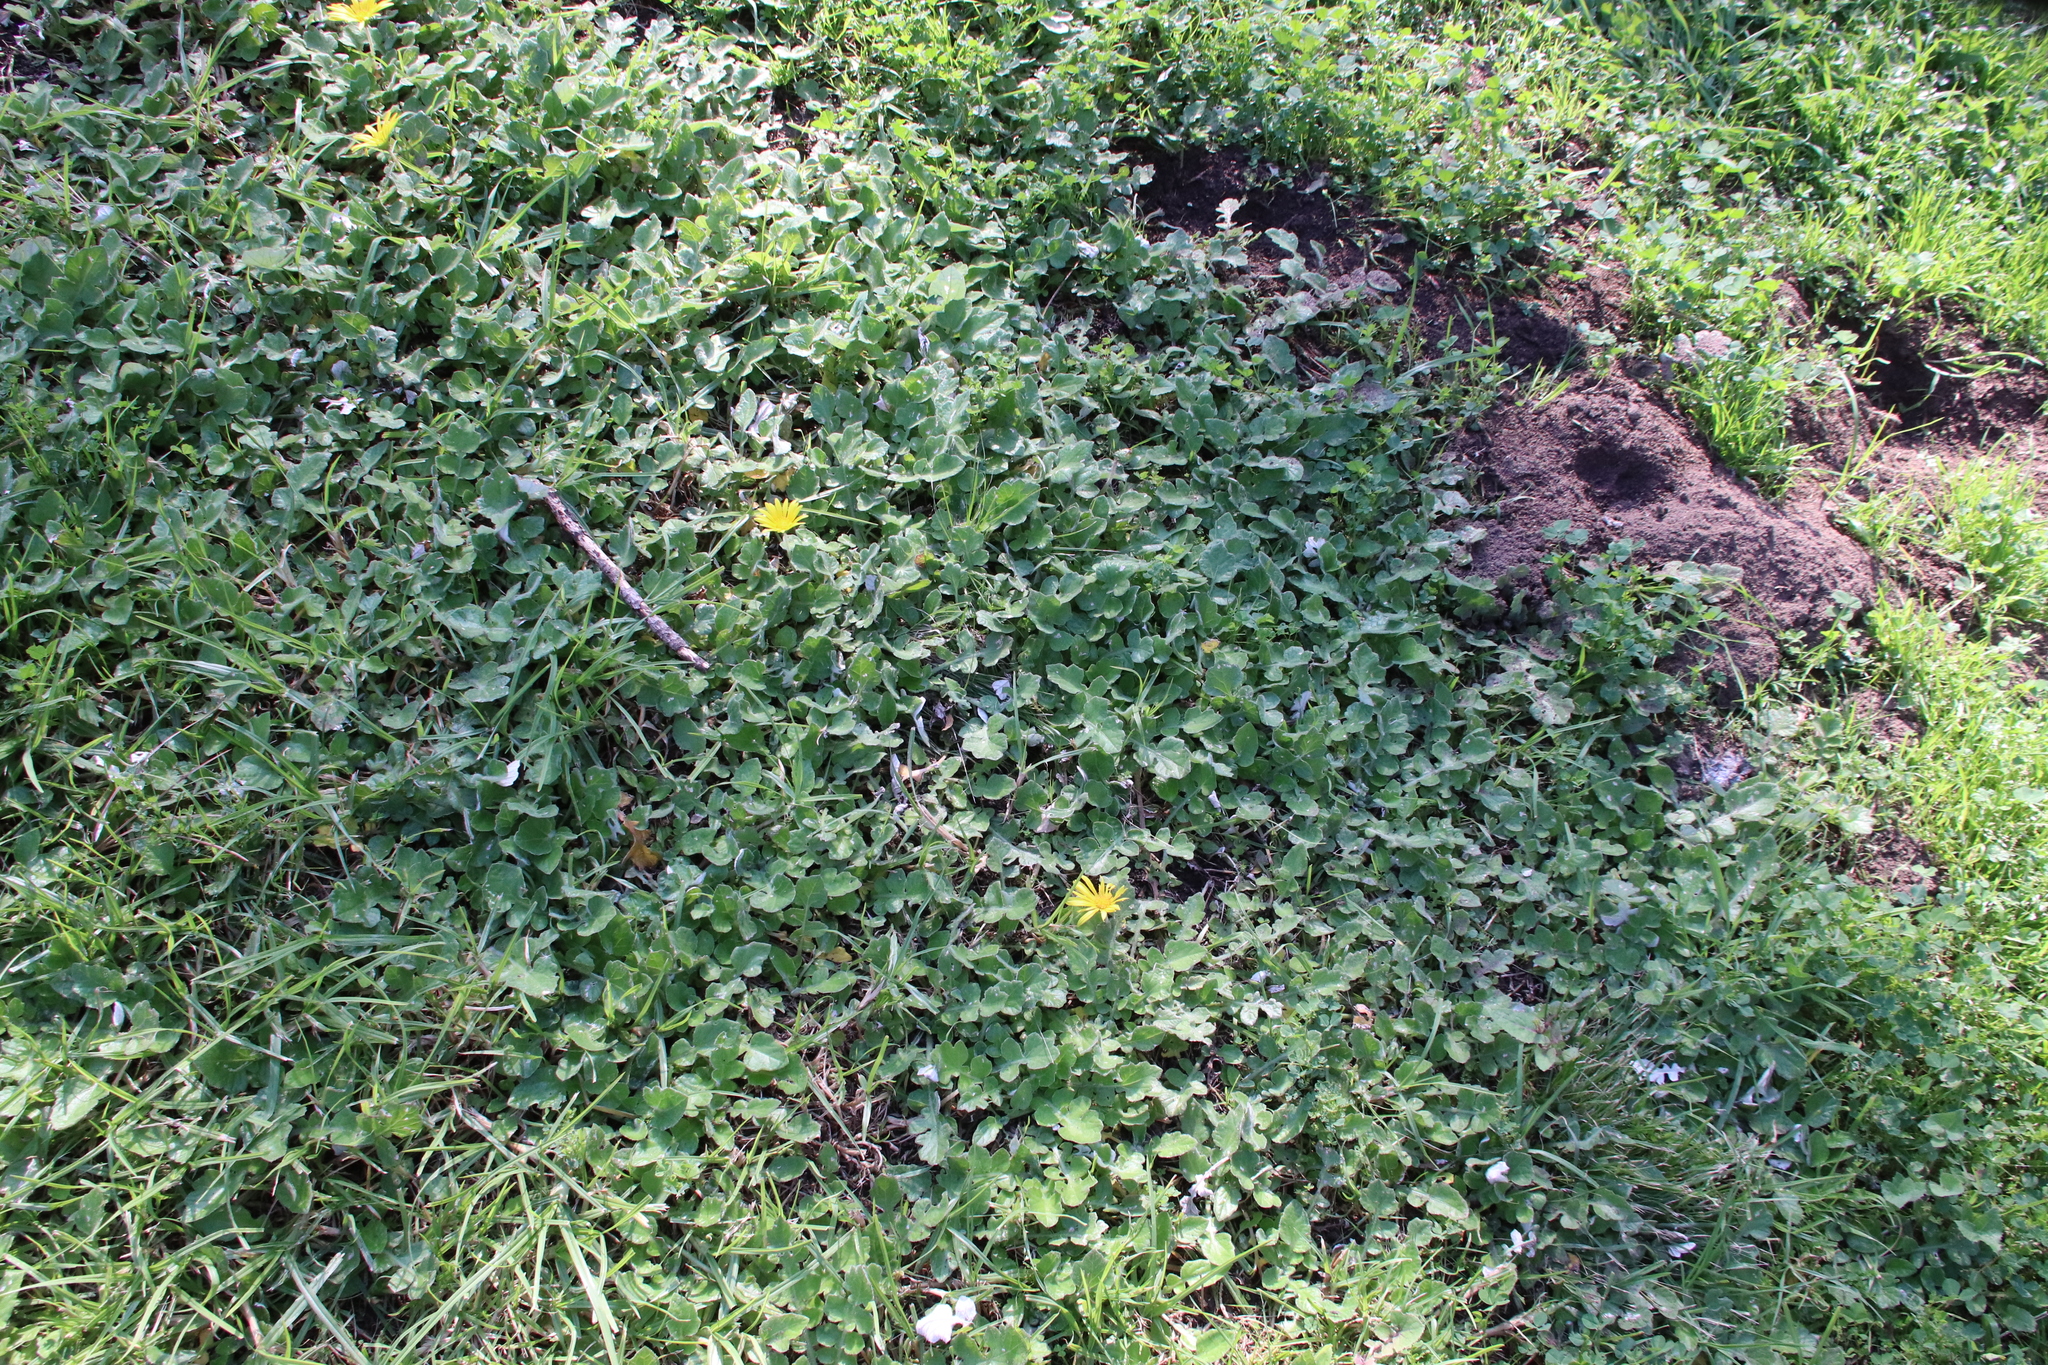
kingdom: Plantae
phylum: Tracheophyta
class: Magnoliopsida
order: Asterales
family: Asteraceae
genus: Arctotheca
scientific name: Arctotheca prostrata
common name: Capeweed
